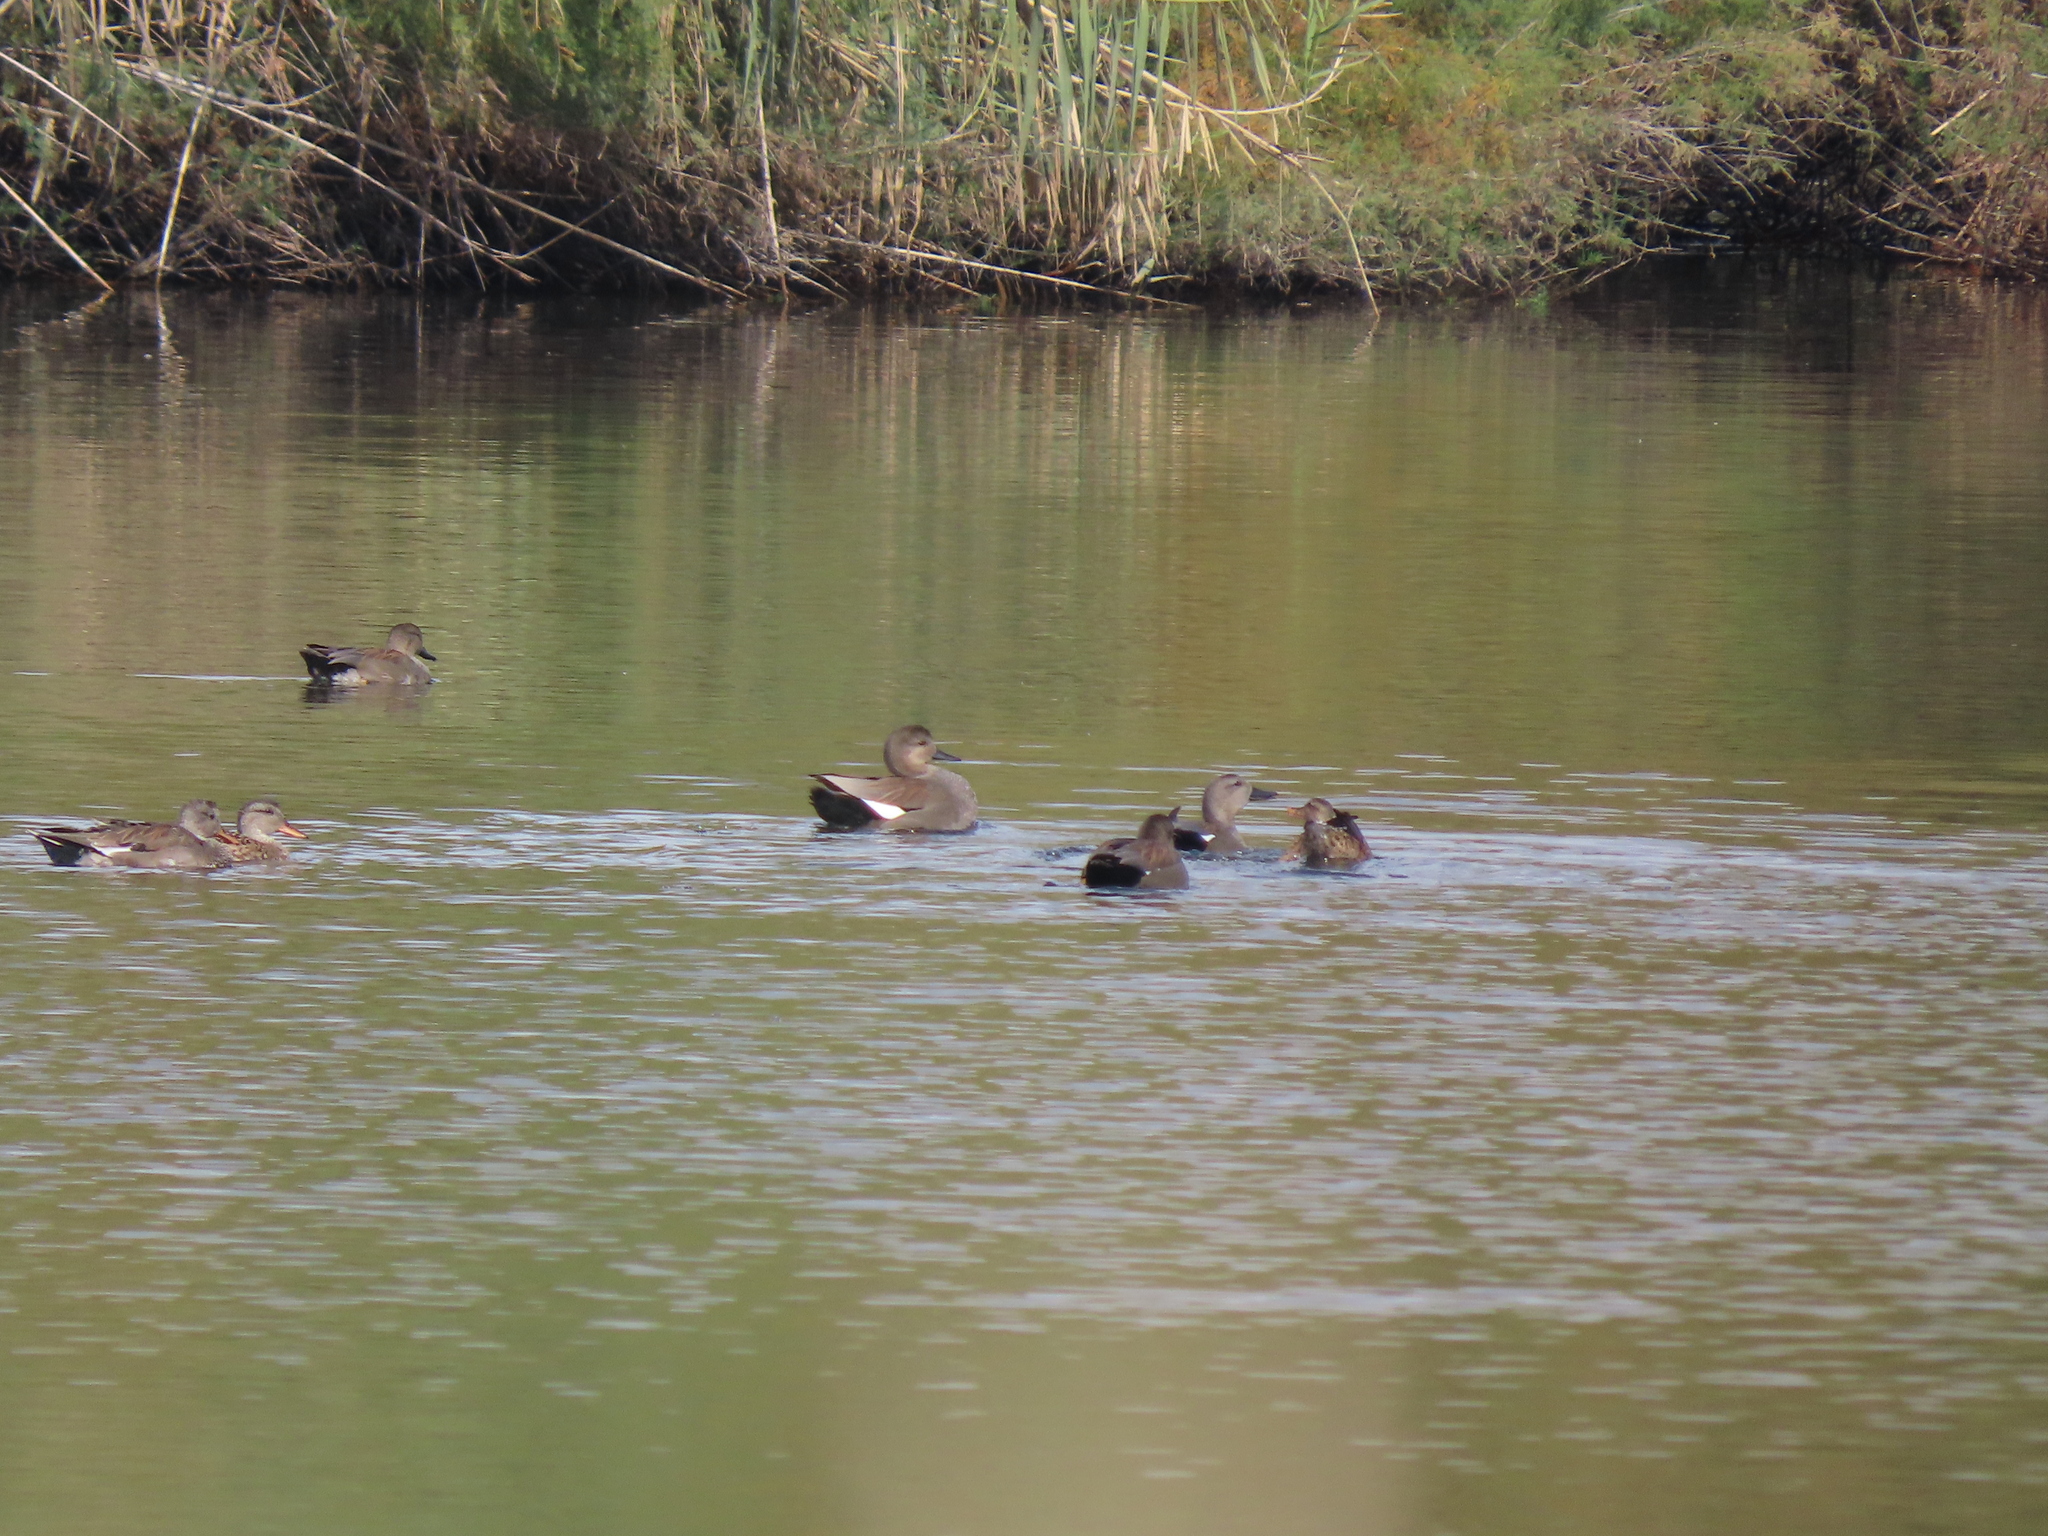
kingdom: Animalia
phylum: Chordata
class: Aves
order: Anseriformes
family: Anatidae
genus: Mareca
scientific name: Mareca strepera
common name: Gadwall
